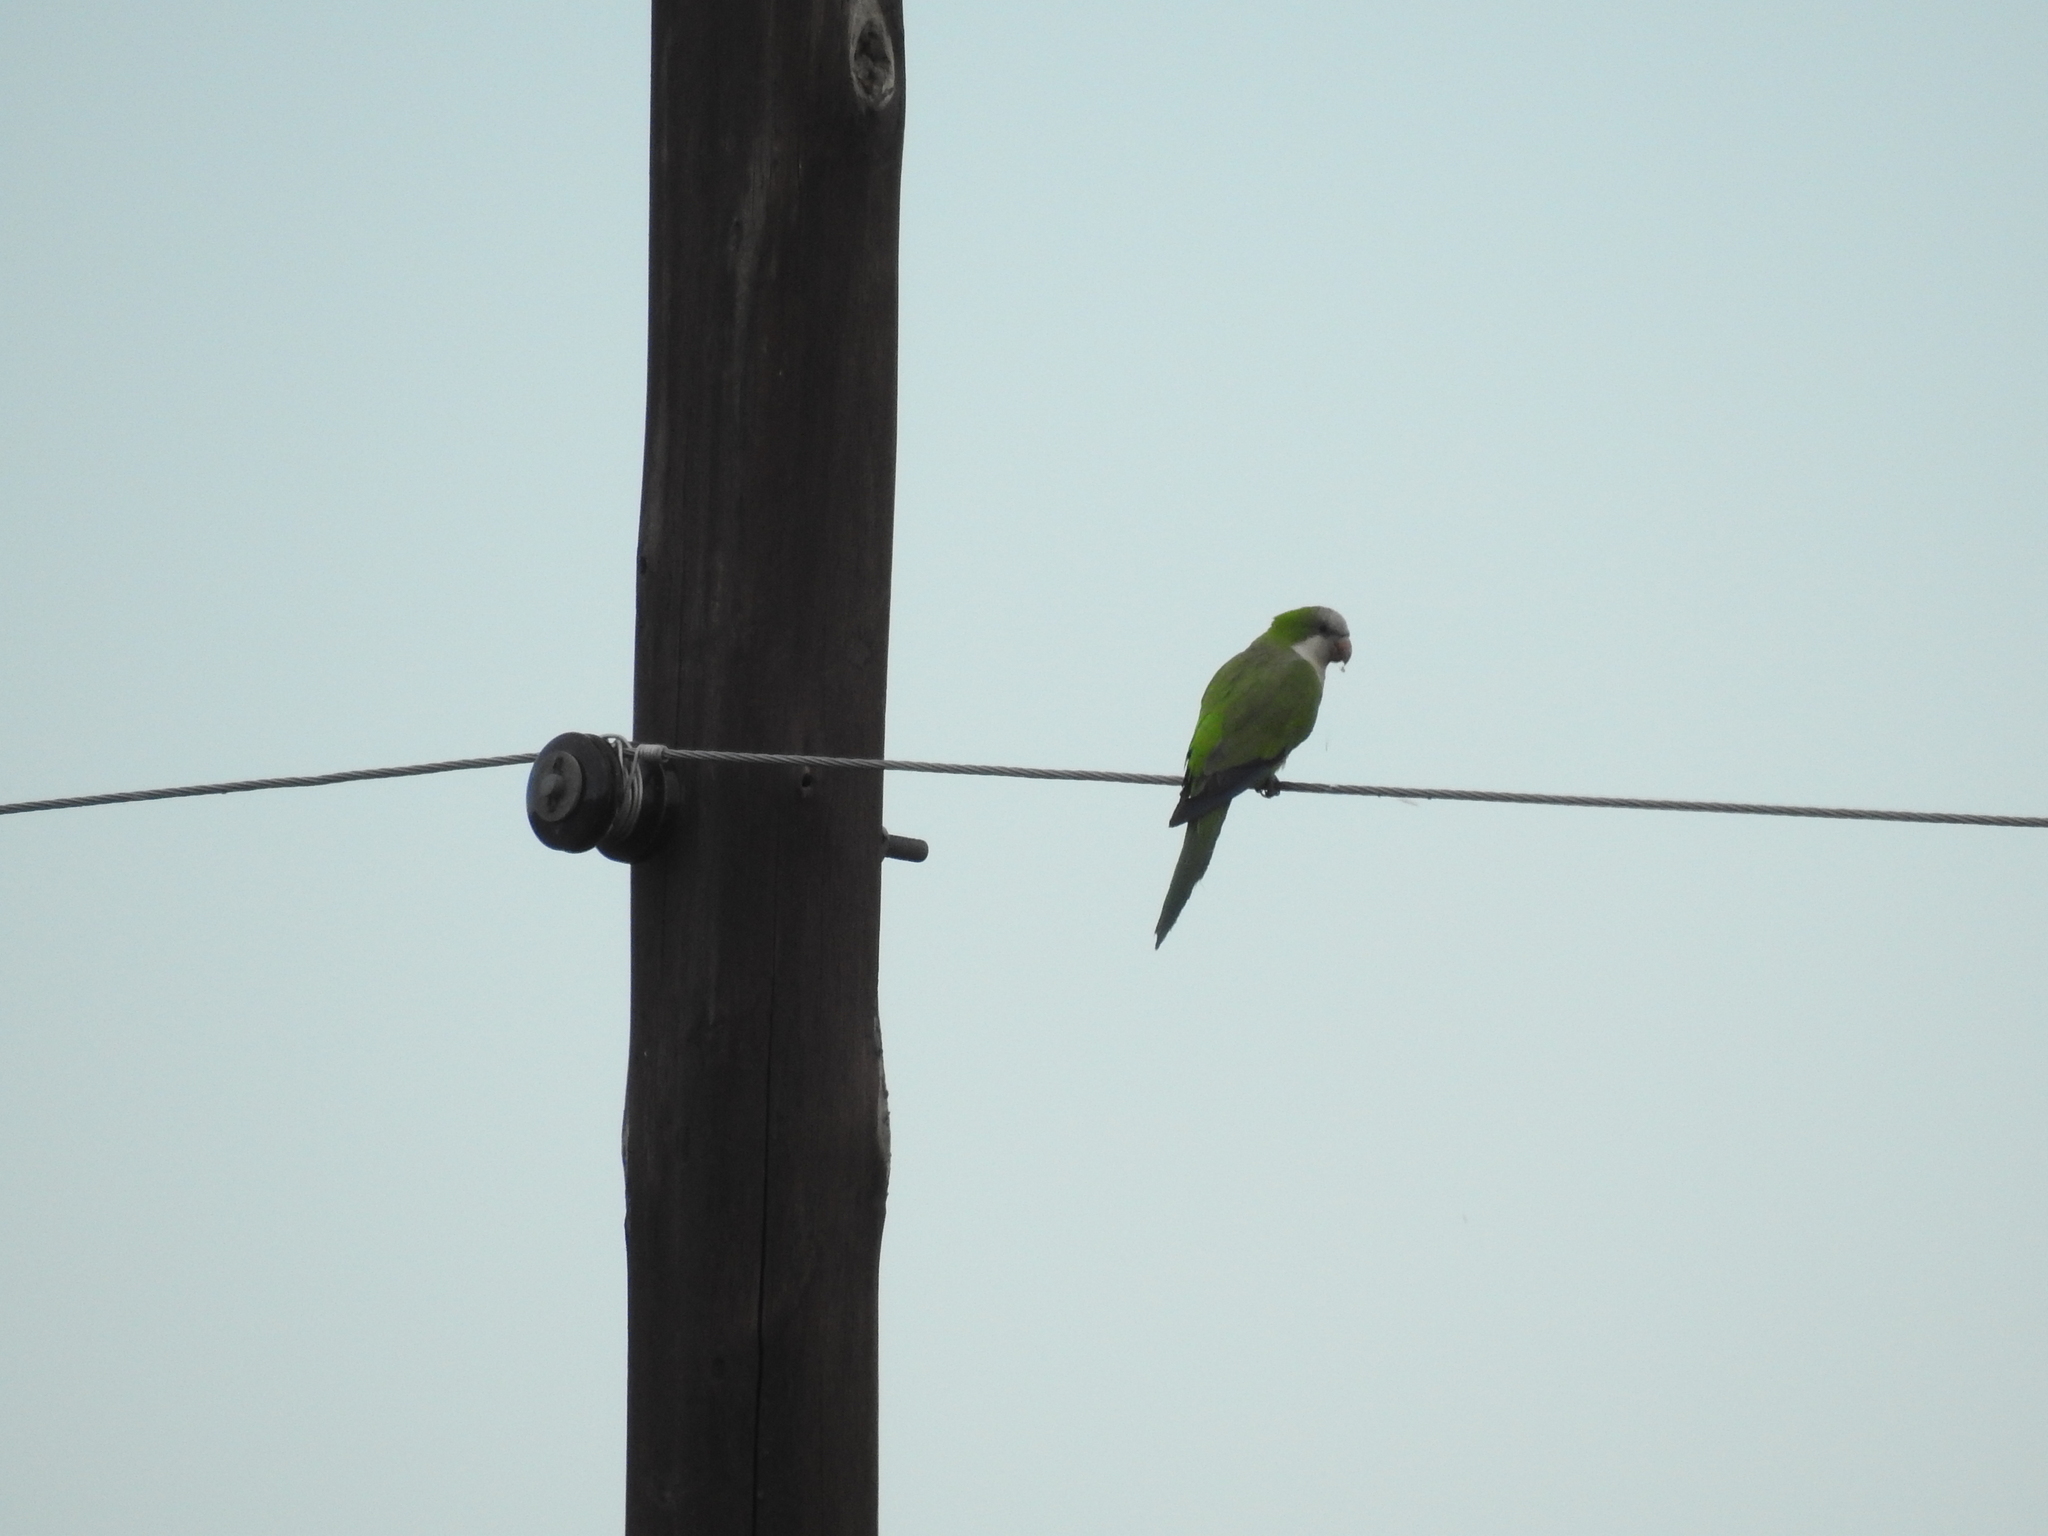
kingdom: Animalia
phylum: Chordata
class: Aves
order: Psittaciformes
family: Psittacidae
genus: Myiopsitta
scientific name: Myiopsitta monachus
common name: Monk parakeet
